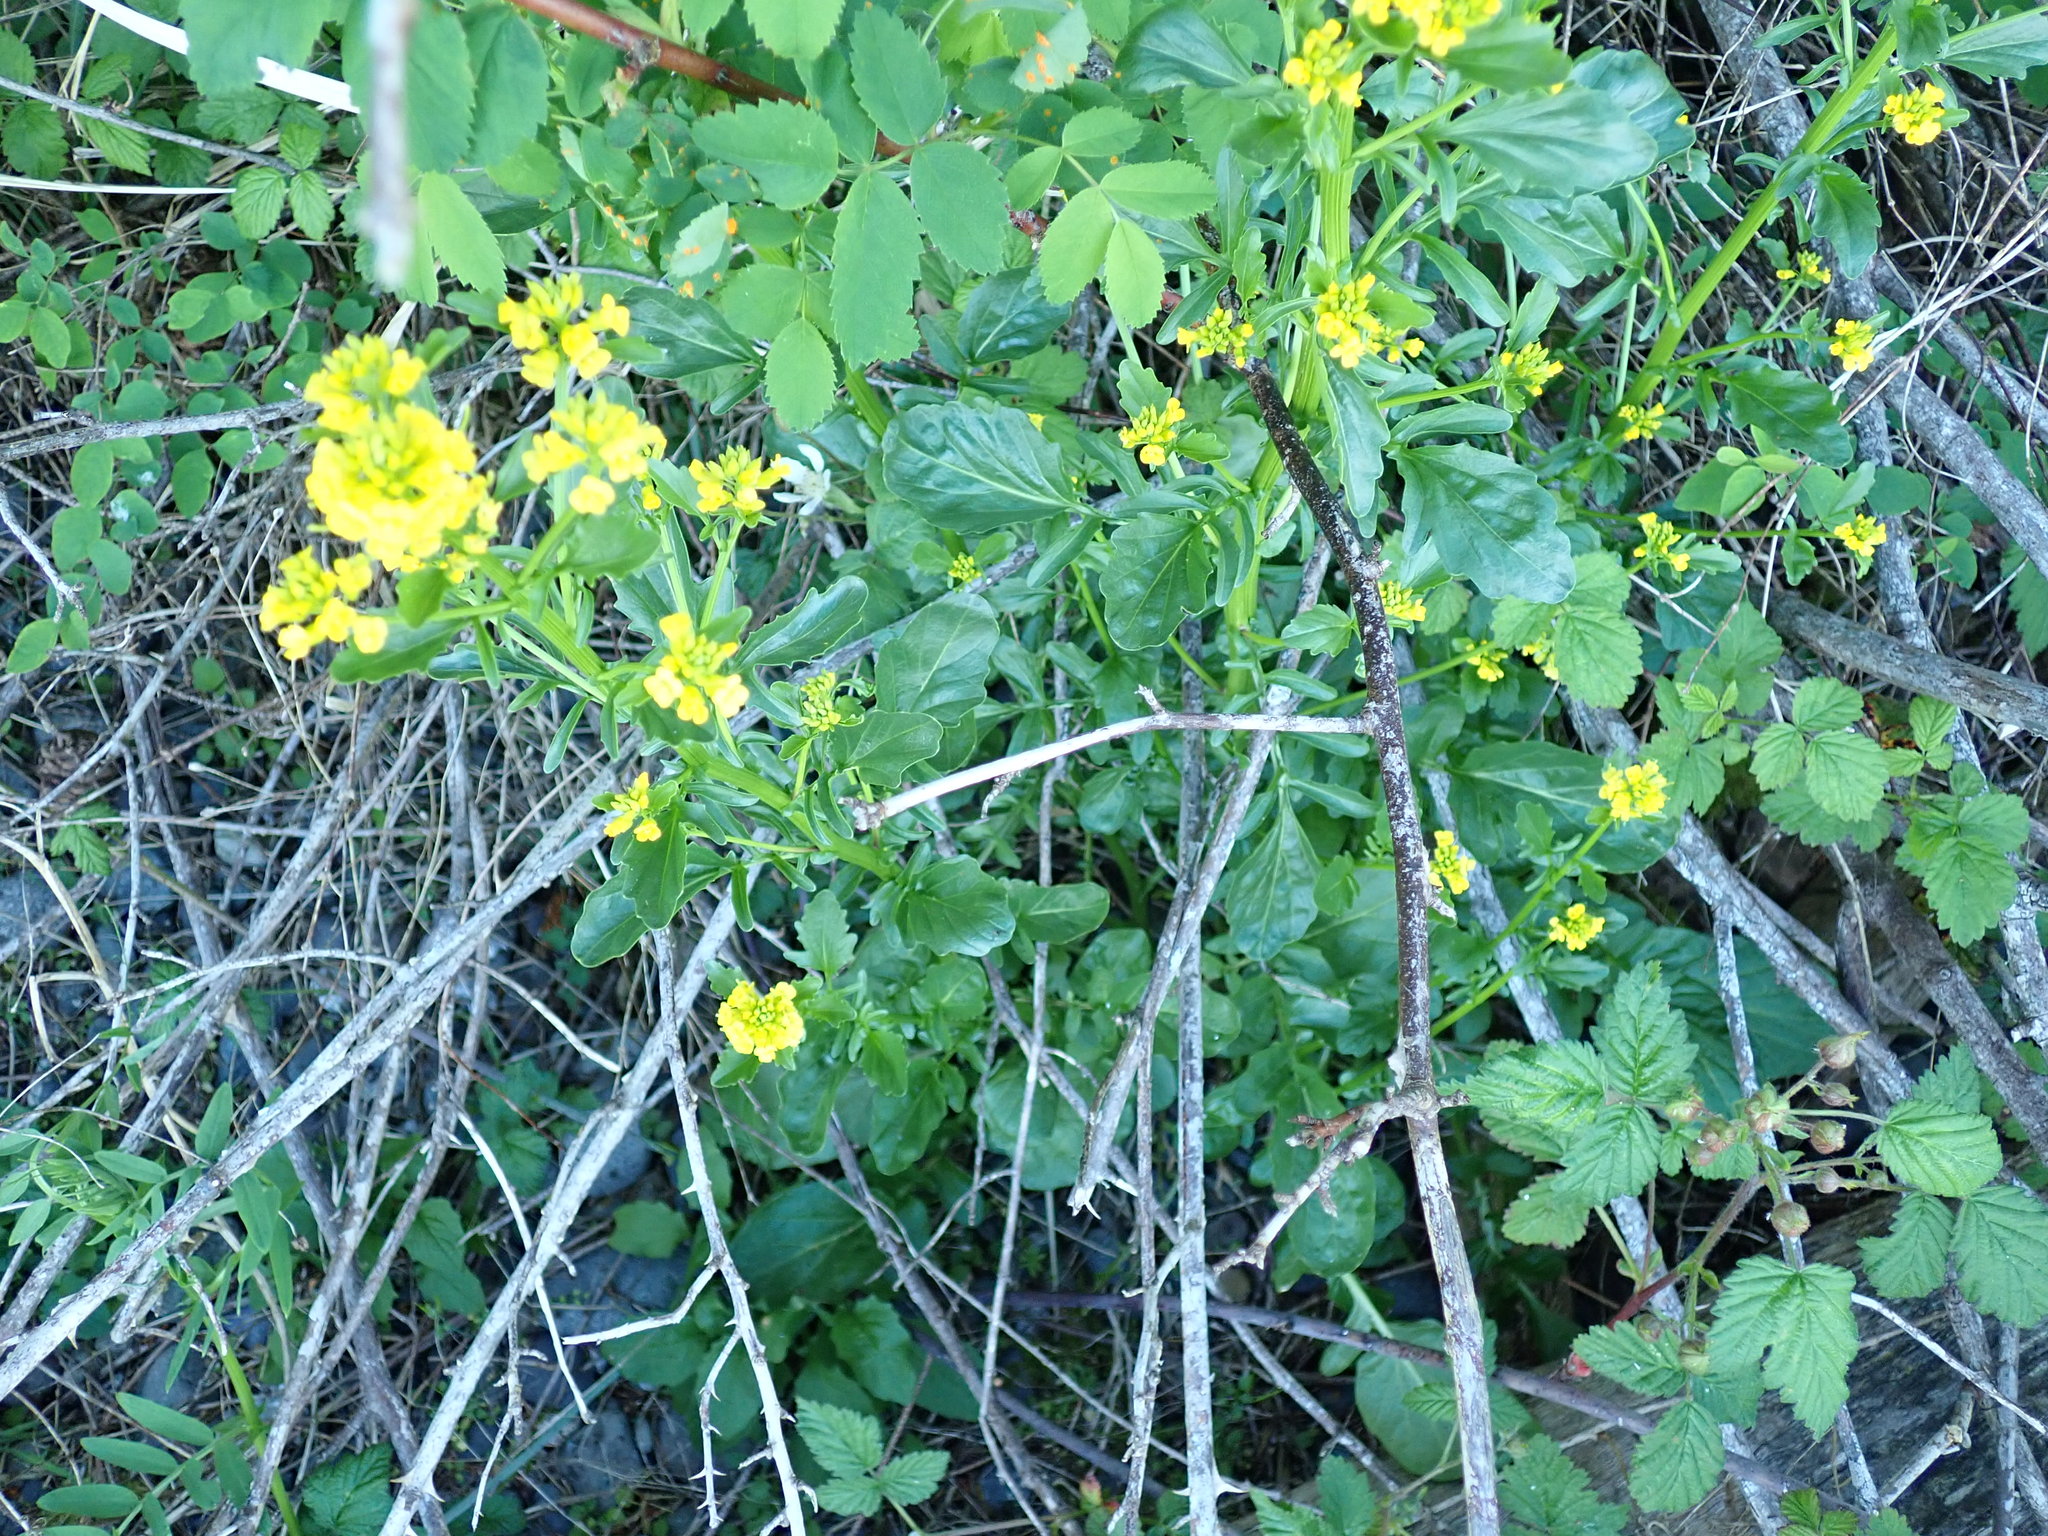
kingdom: Plantae
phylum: Tracheophyta
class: Magnoliopsida
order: Brassicales
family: Brassicaceae
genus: Barbarea
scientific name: Barbarea orthoceras
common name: American wintercress
